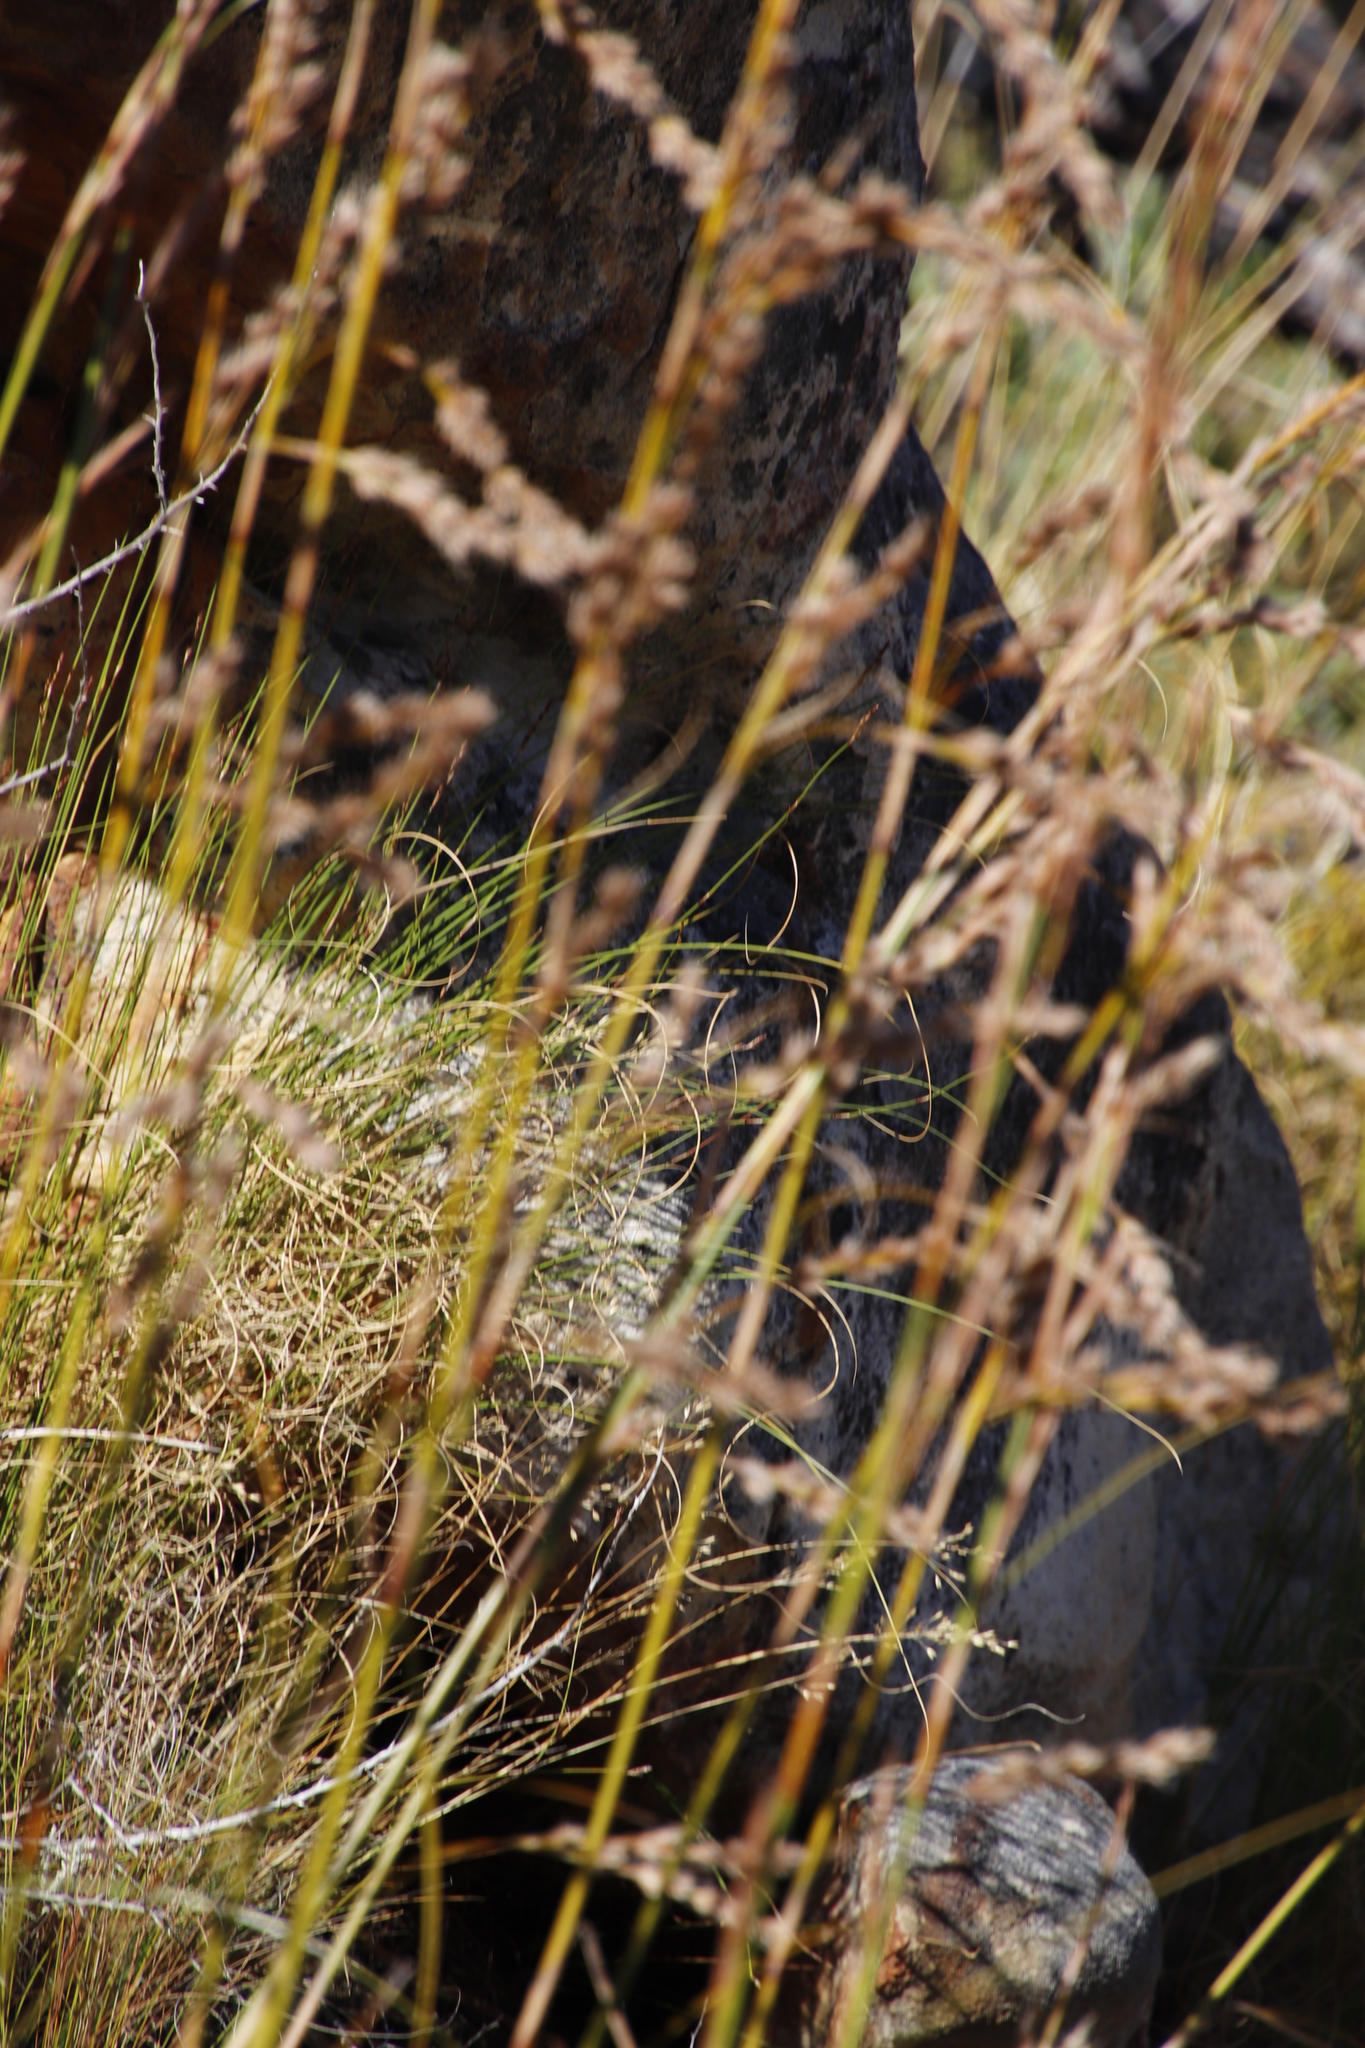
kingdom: Plantae
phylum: Tracheophyta
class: Liliopsida
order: Poales
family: Cyperaceae
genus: Tetraria
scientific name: Tetraria involucrata
